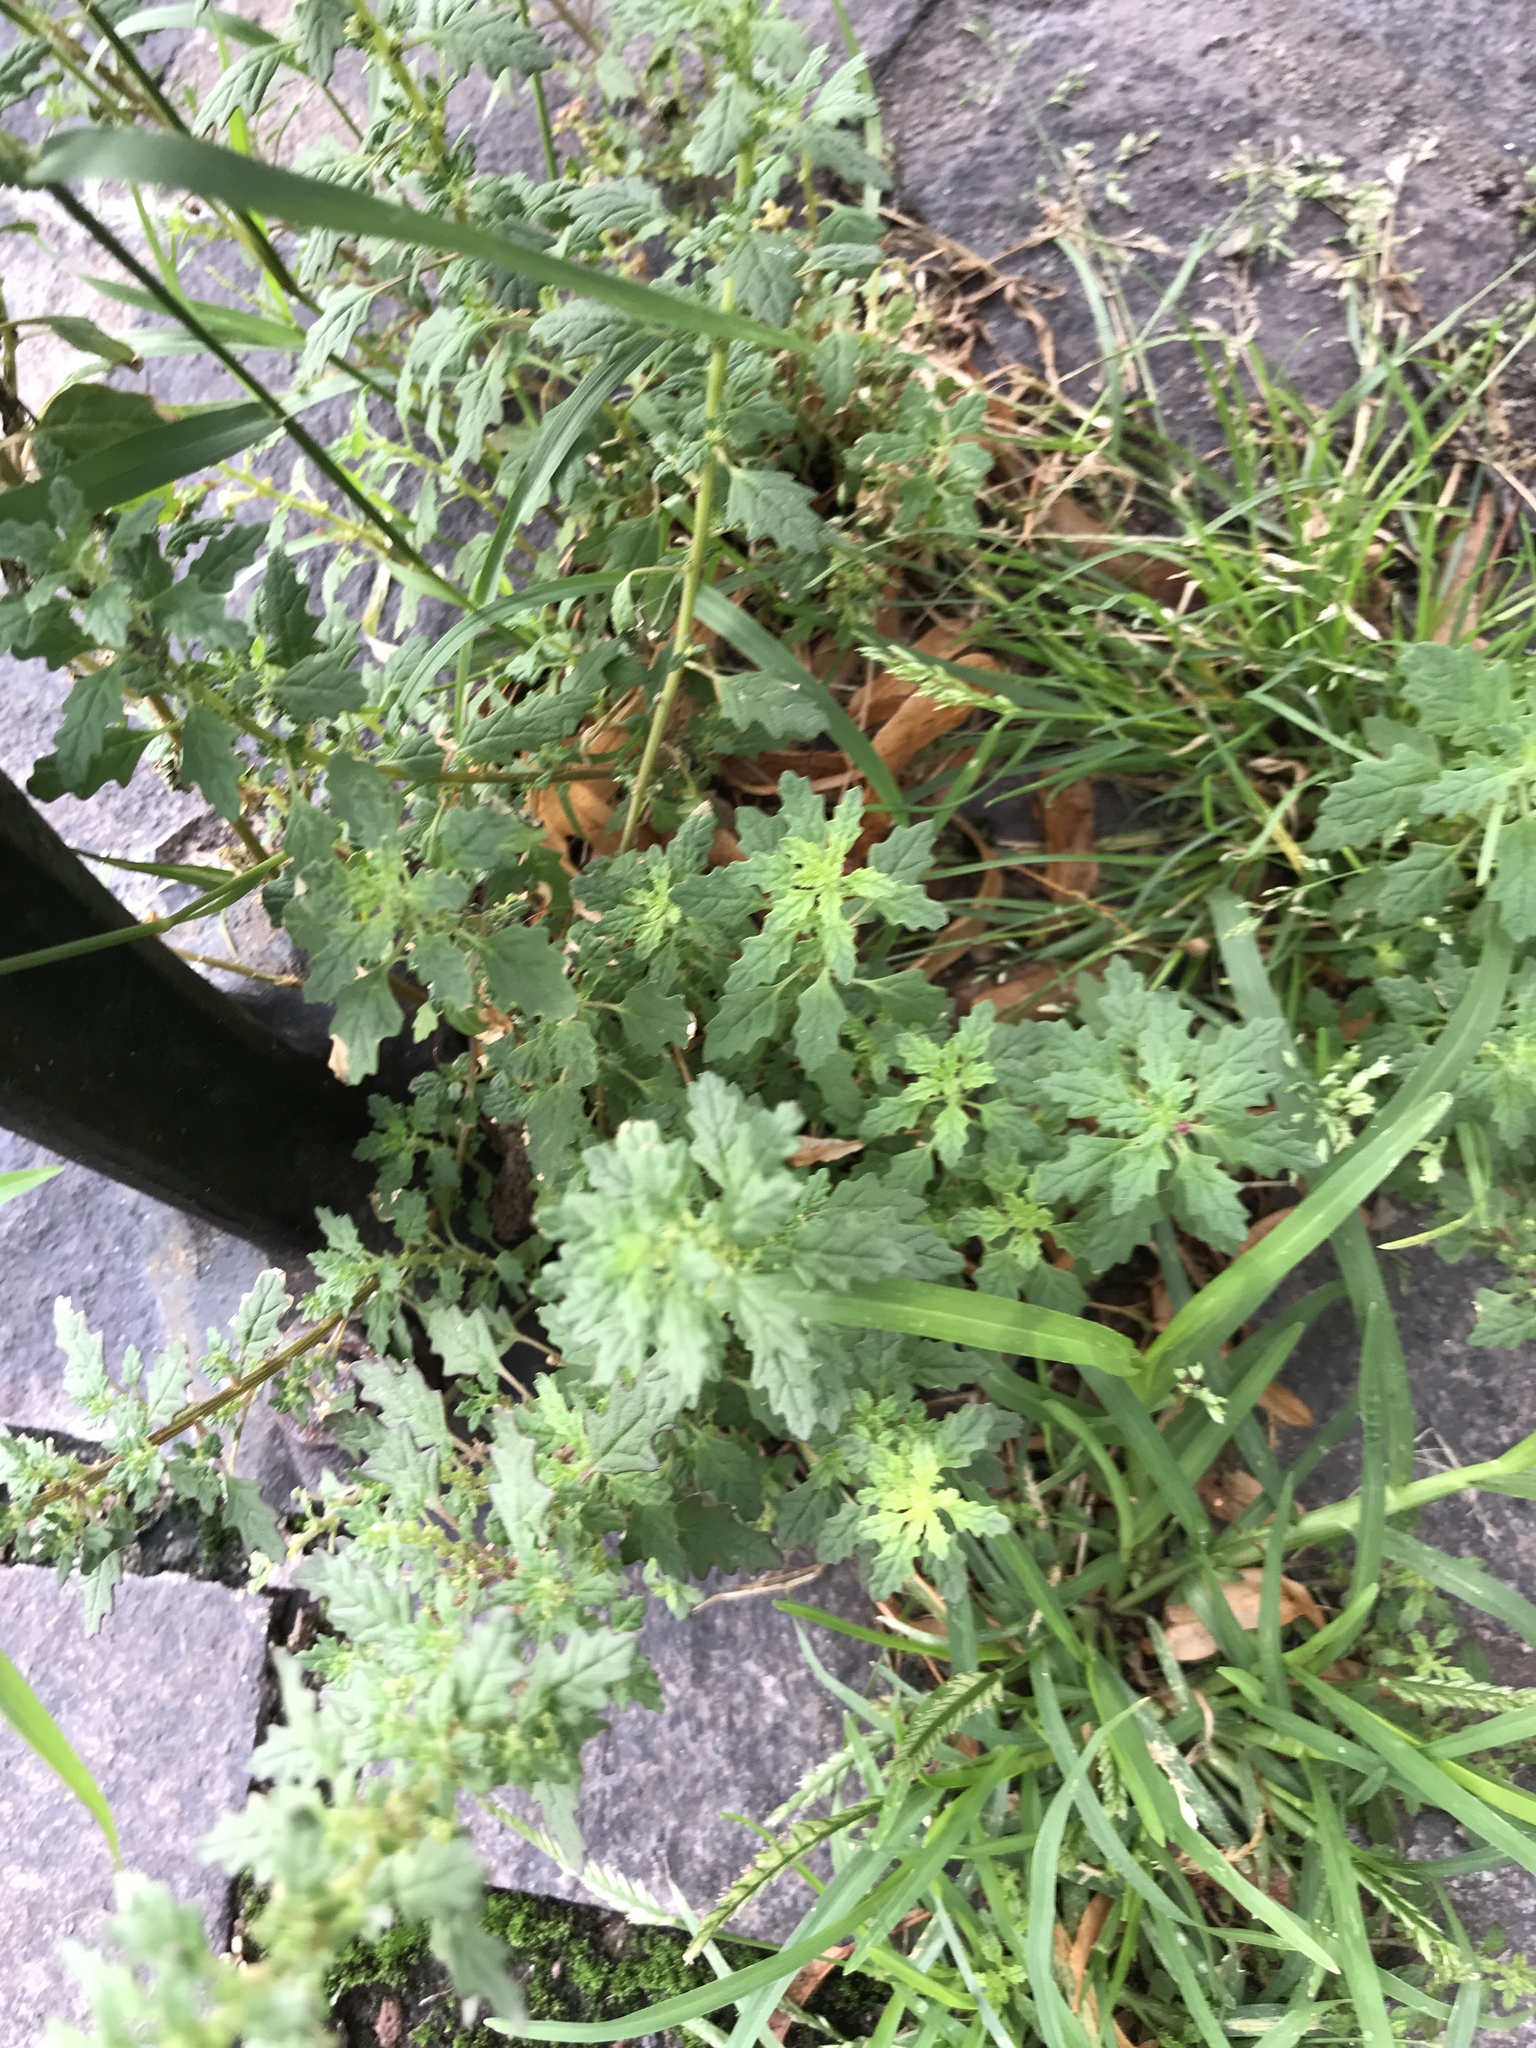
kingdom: Plantae
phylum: Tracheophyta
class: Magnoliopsida
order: Caryophyllales
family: Amaranthaceae
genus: Dysphania
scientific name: Dysphania pumilio
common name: Clammy goosefoot
